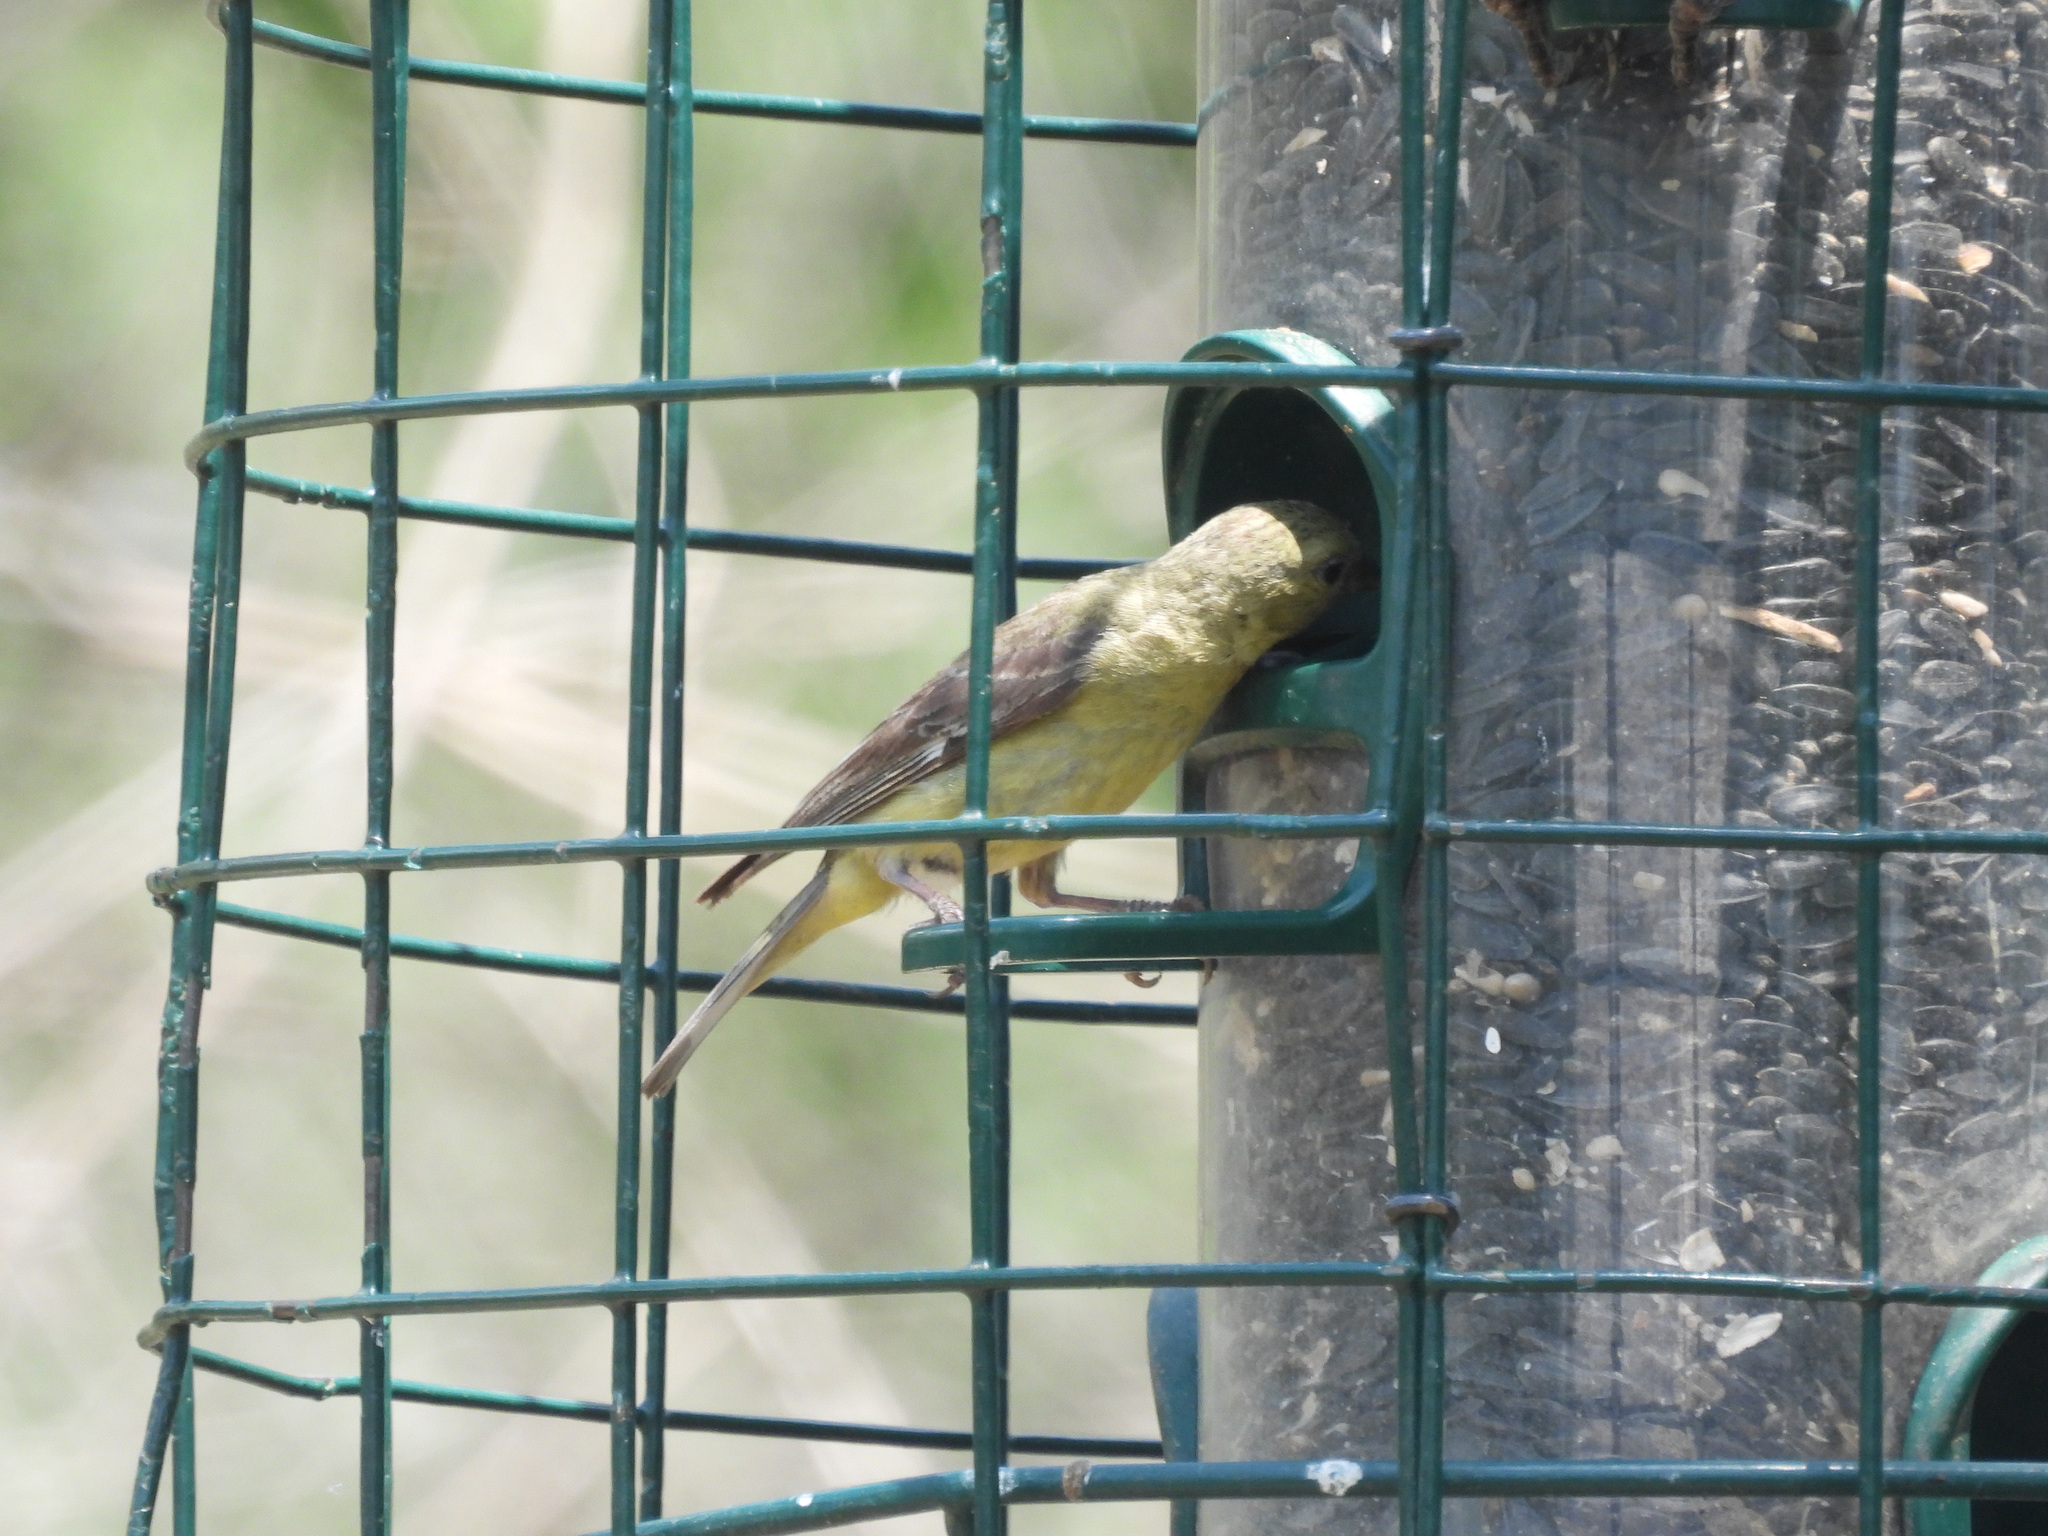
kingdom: Animalia
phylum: Chordata
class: Aves
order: Passeriformes
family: Fringillidae
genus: Spinus
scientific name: Spinus psaltria
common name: Lesser goldfinch
